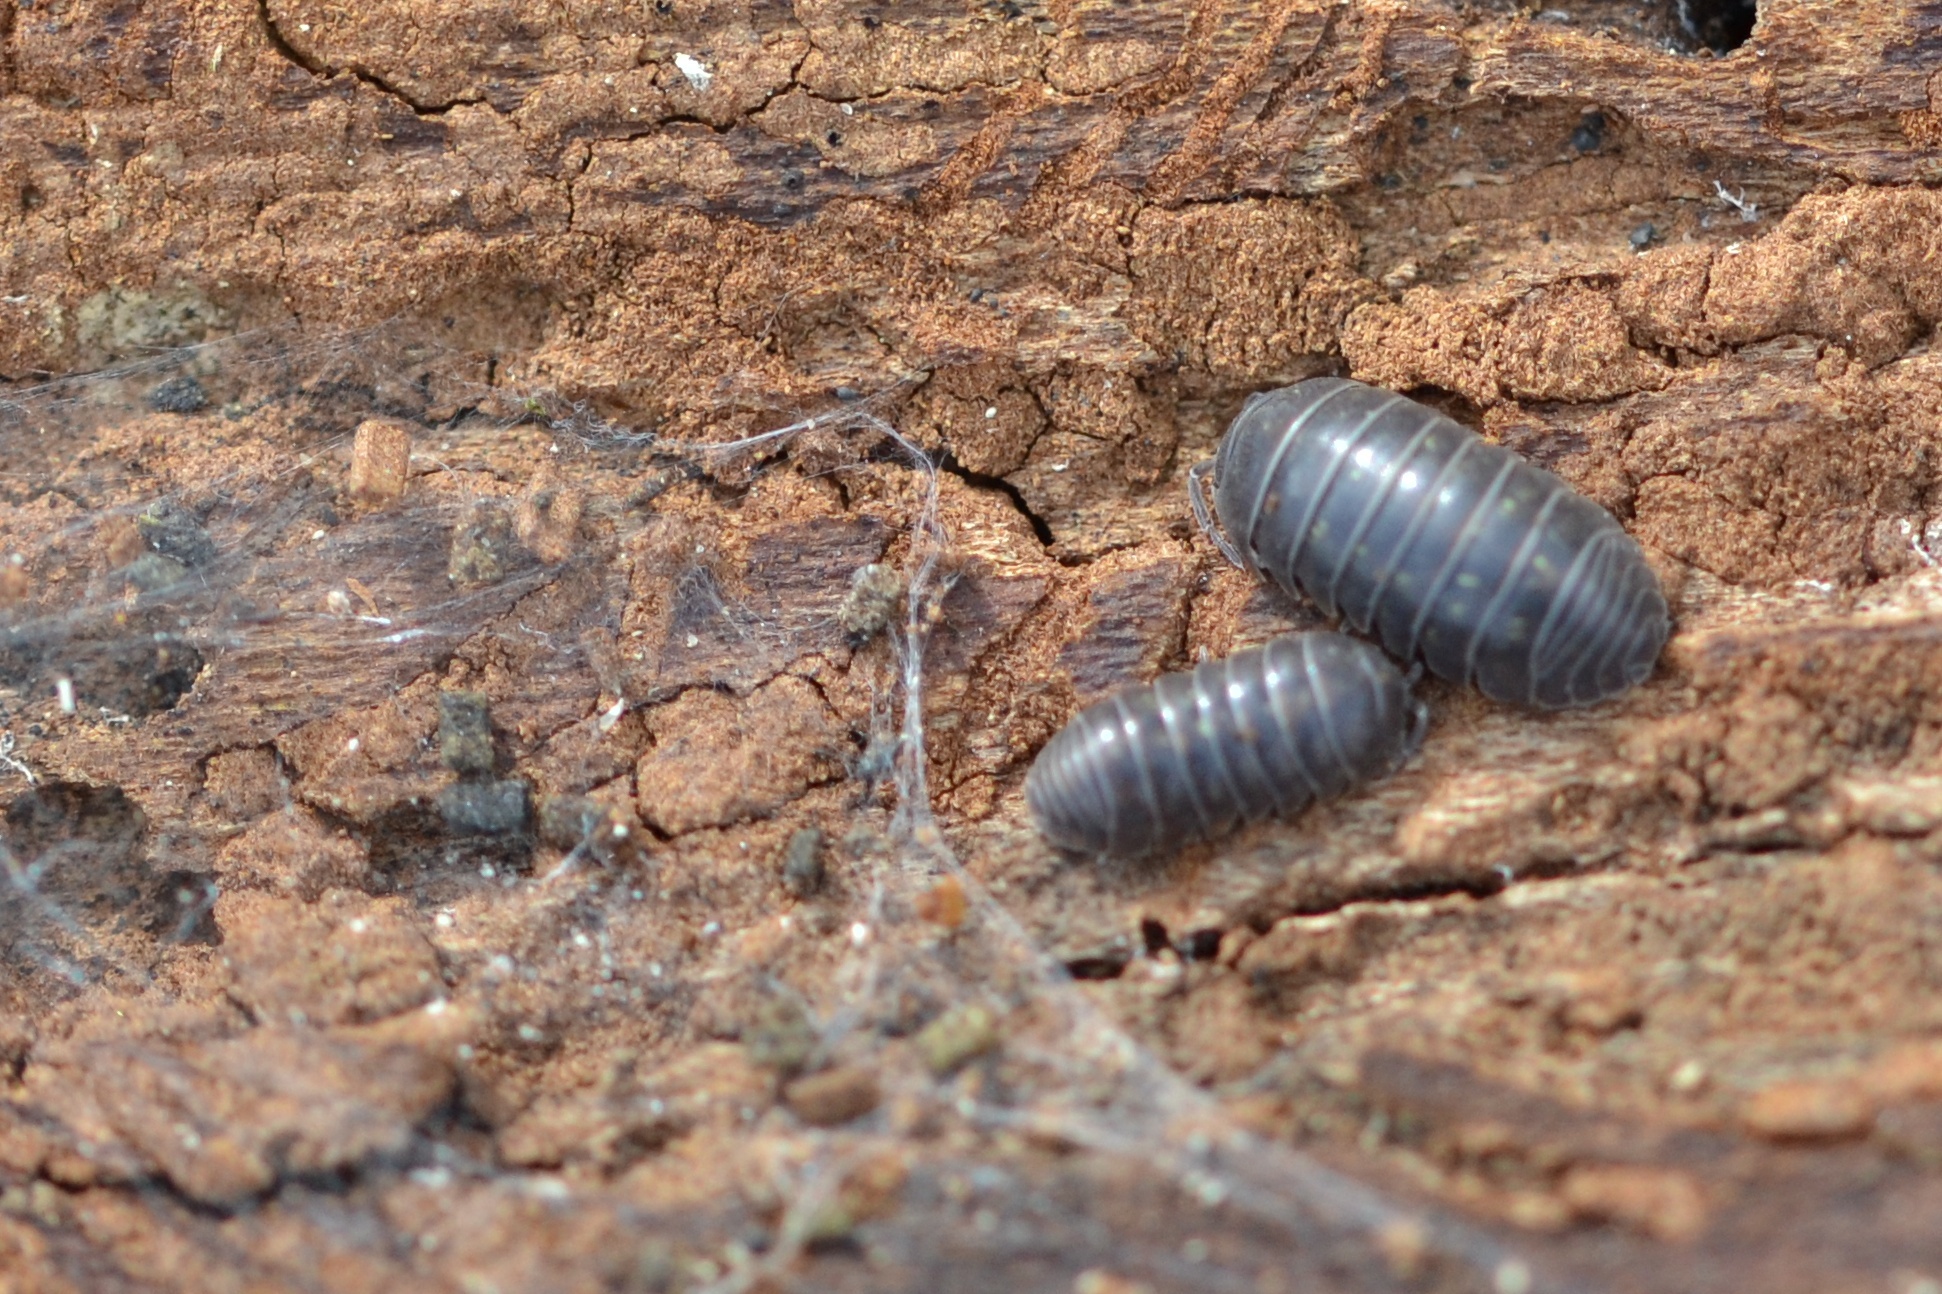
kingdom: Animalia
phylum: Arthropoda
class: Malacostraca
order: Isopoda
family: Armadillidiidae
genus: Armadillidium
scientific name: Armadillidium vulgare
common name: Common pill woodlouse
